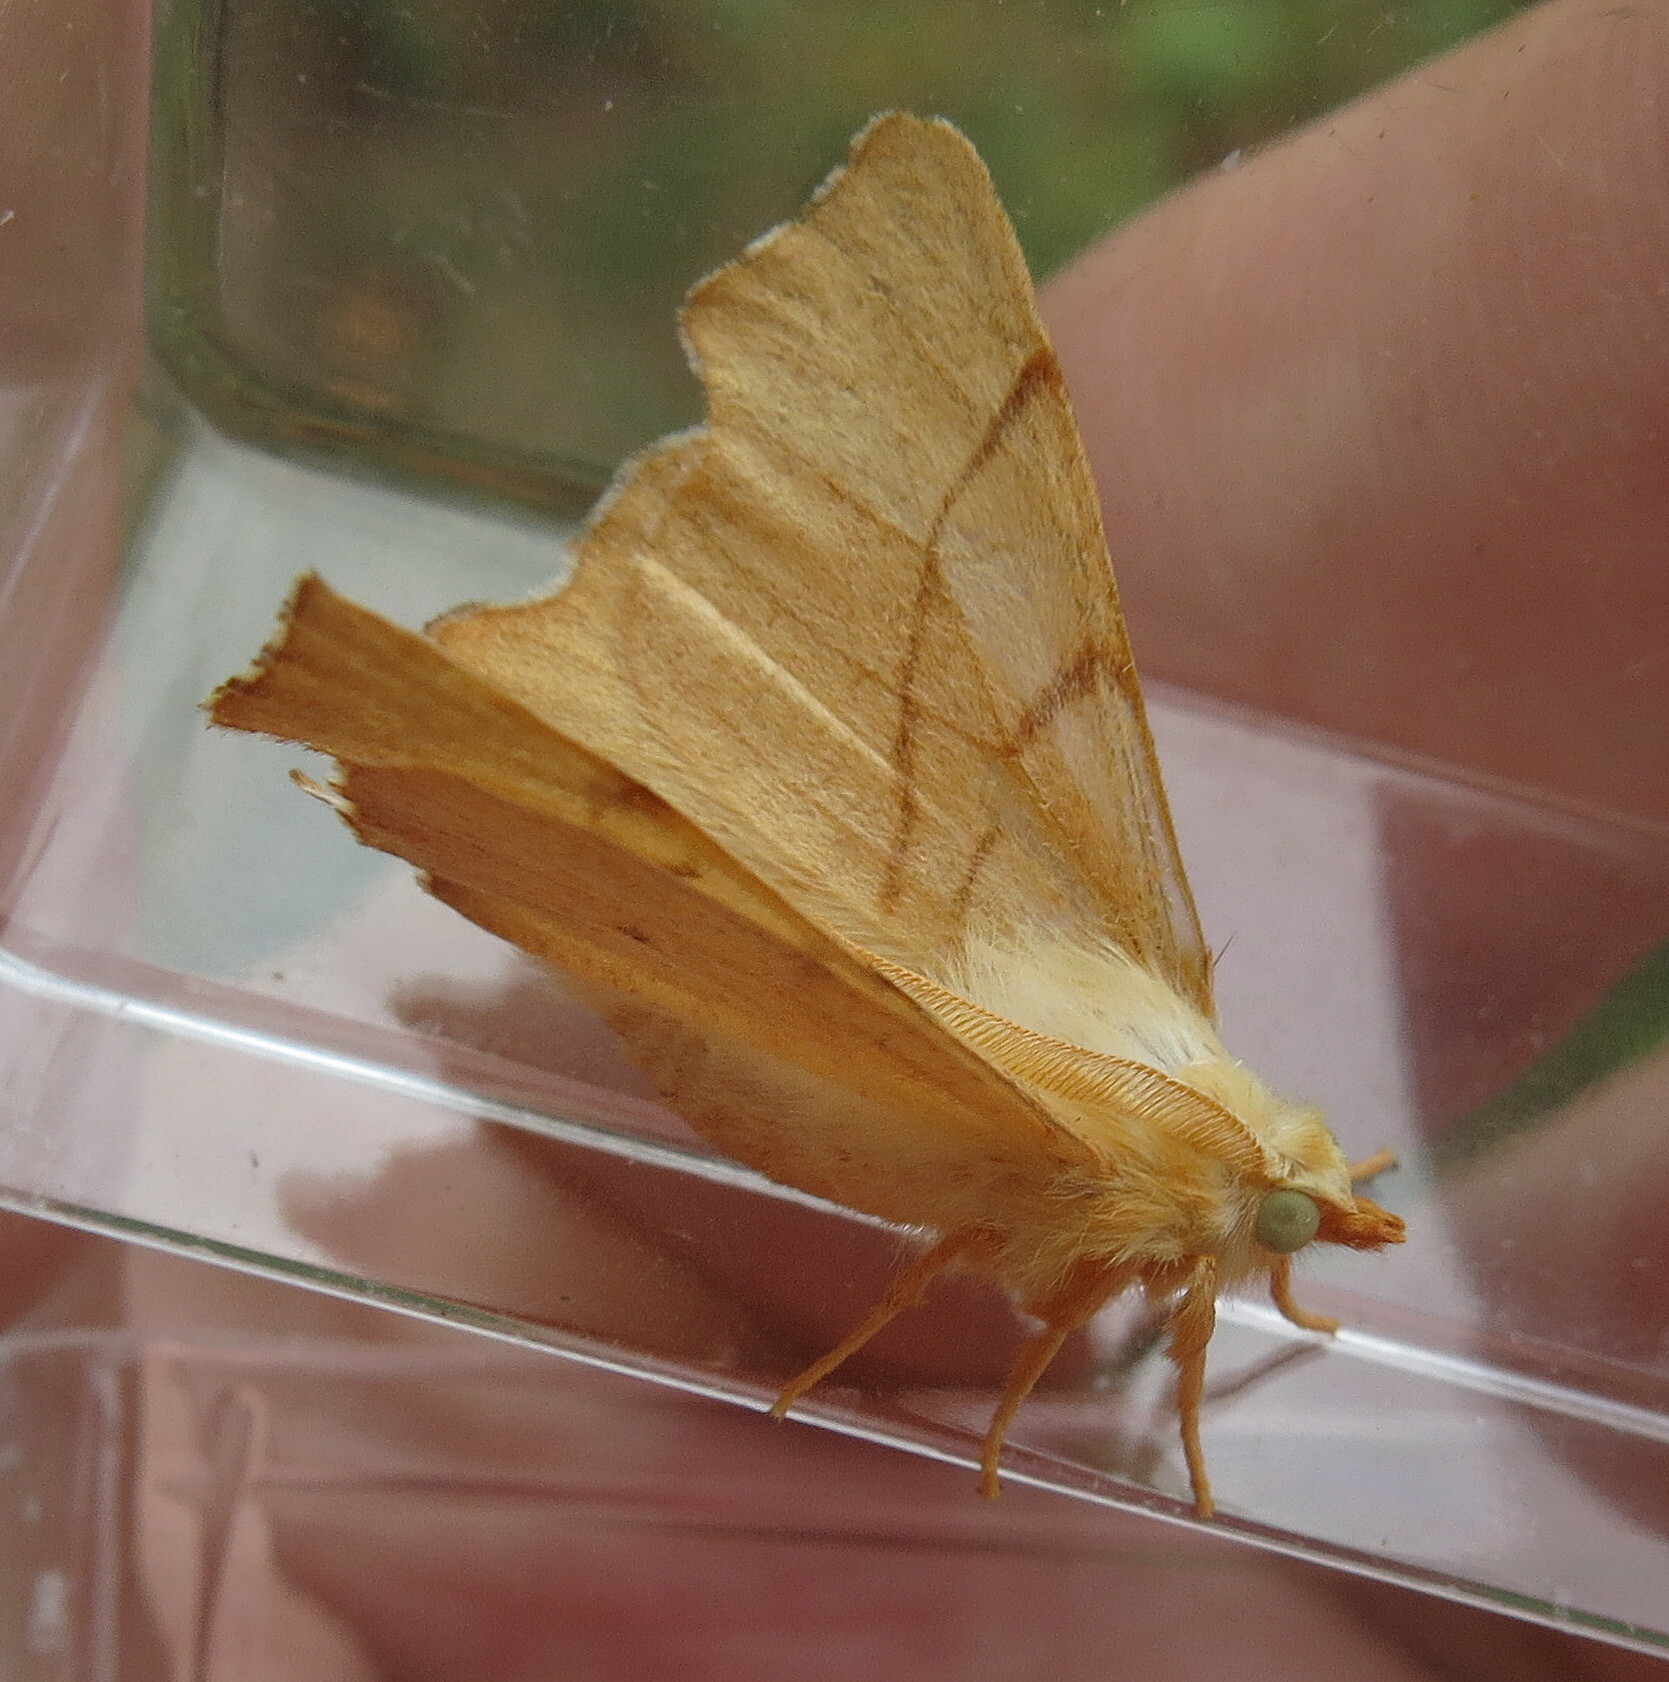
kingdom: Animalia
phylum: Arthropoda
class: Insecta
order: Lepidoptera
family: Geometridae
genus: Ennomos
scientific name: Ennomos erosaria
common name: September thorn
